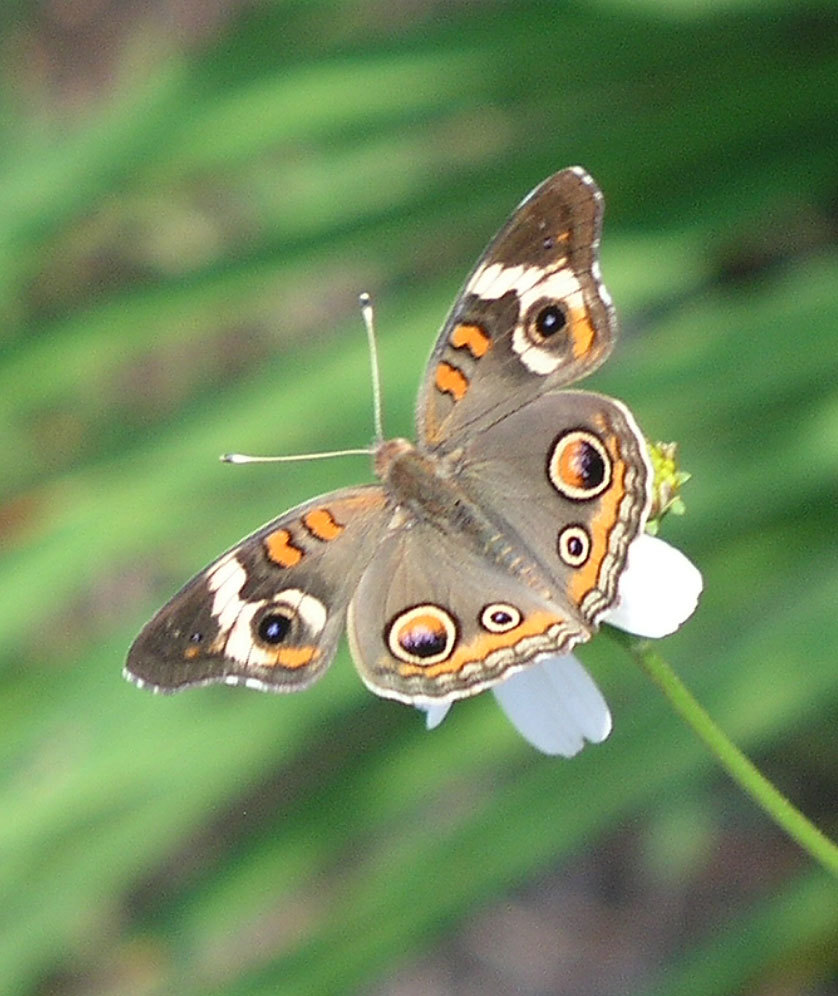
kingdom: Animalia
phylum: Arthropoda
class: Insecta
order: Lepidoptera
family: Nymphalidae
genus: Junonia
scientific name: Junonia coenia
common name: Common buckeye
